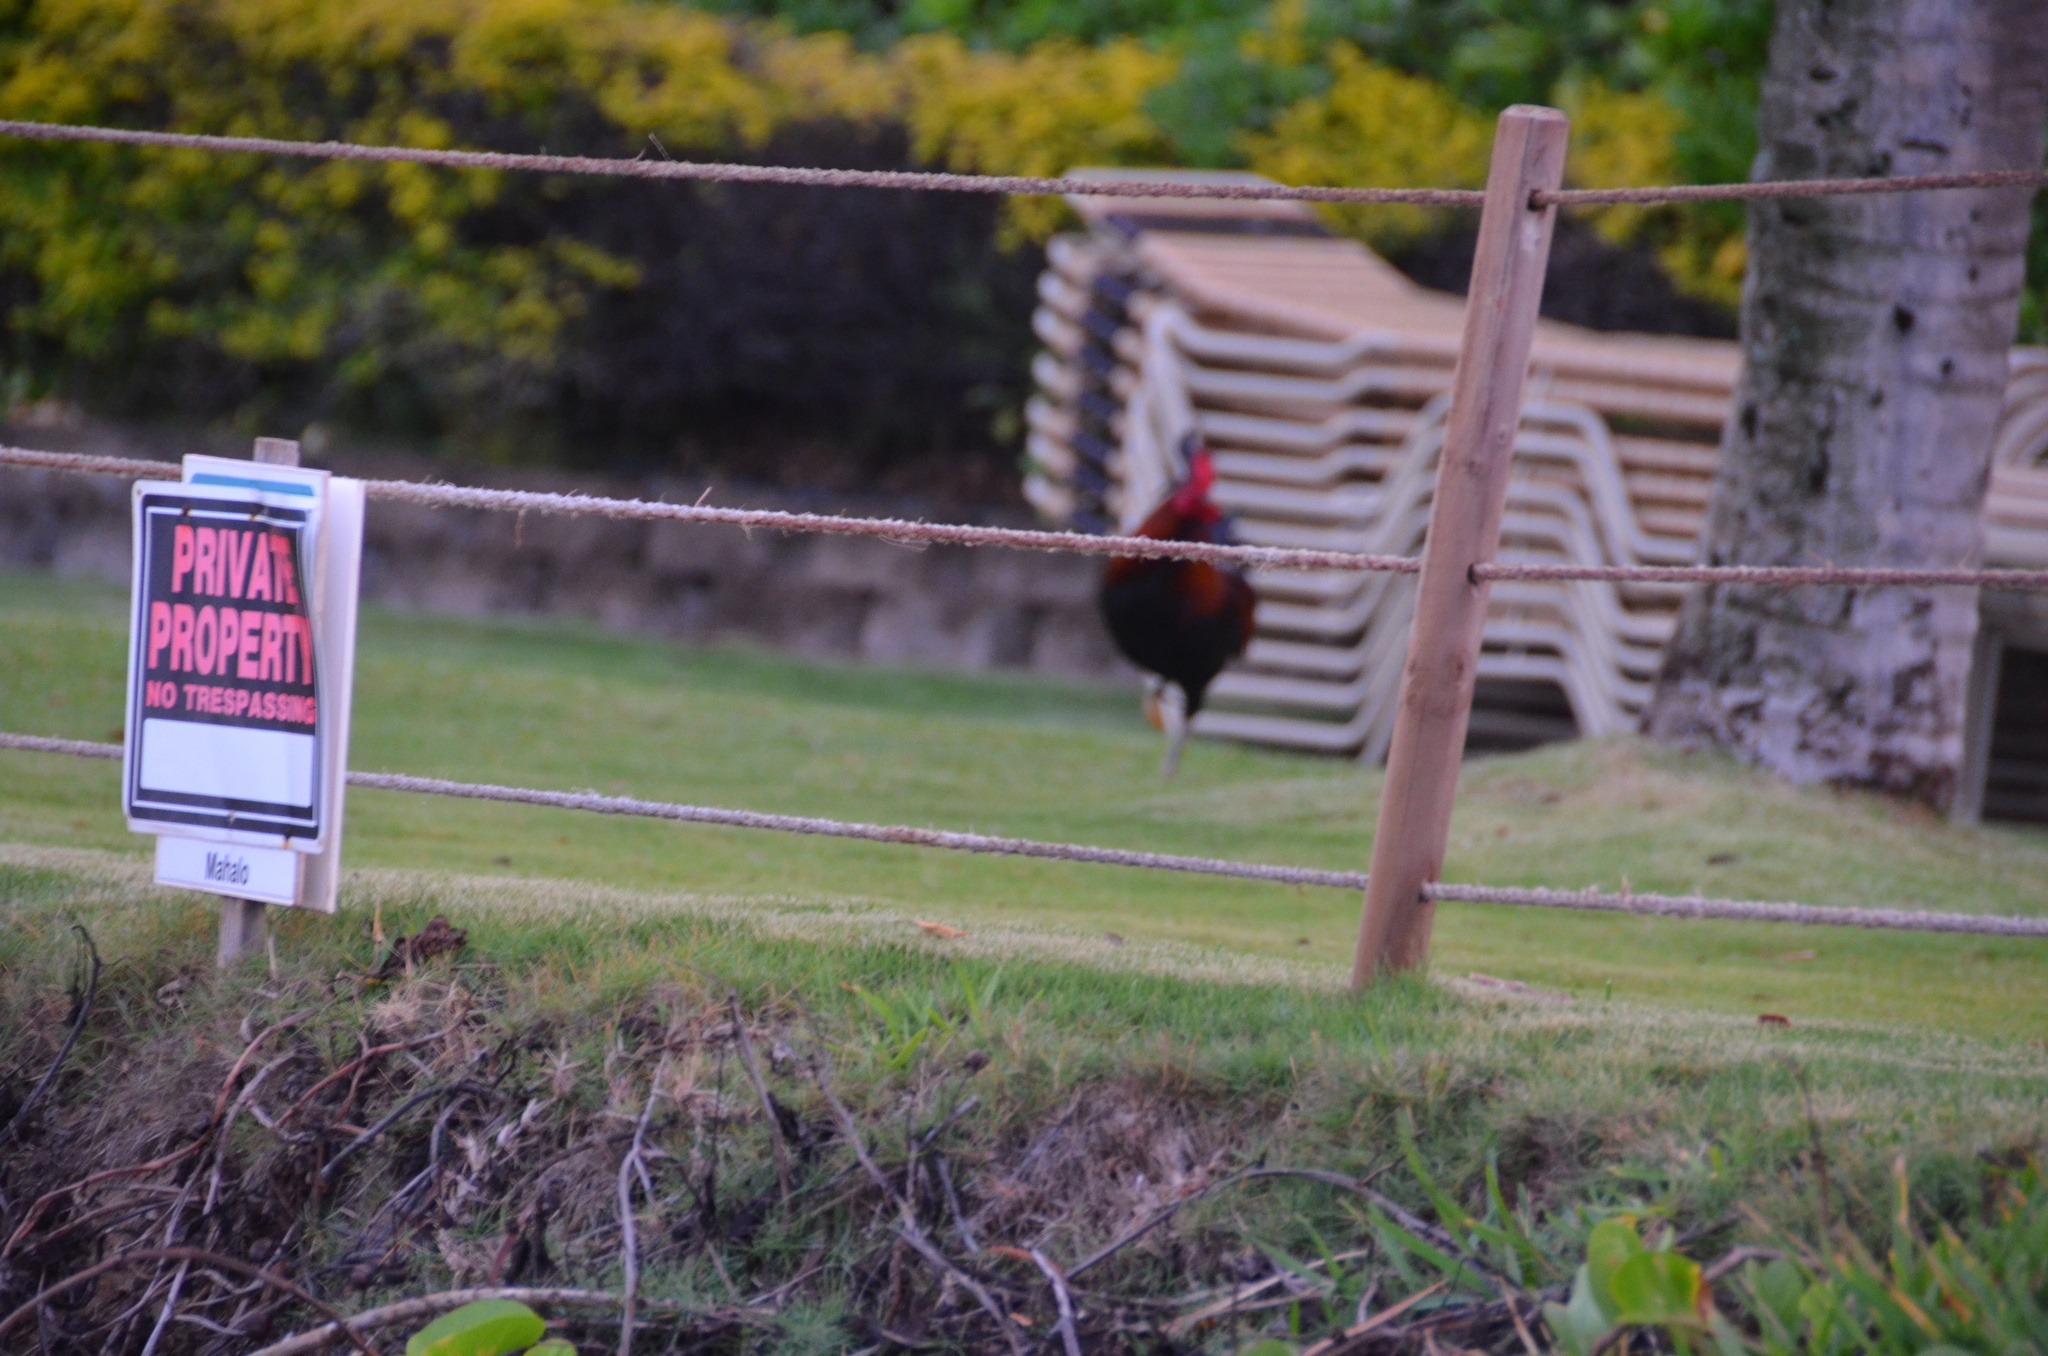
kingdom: Animalia
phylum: Chordata
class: Aves
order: Galliformes
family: Phasianidae
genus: Gallus
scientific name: Gallus gallus
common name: Red junglefowl
